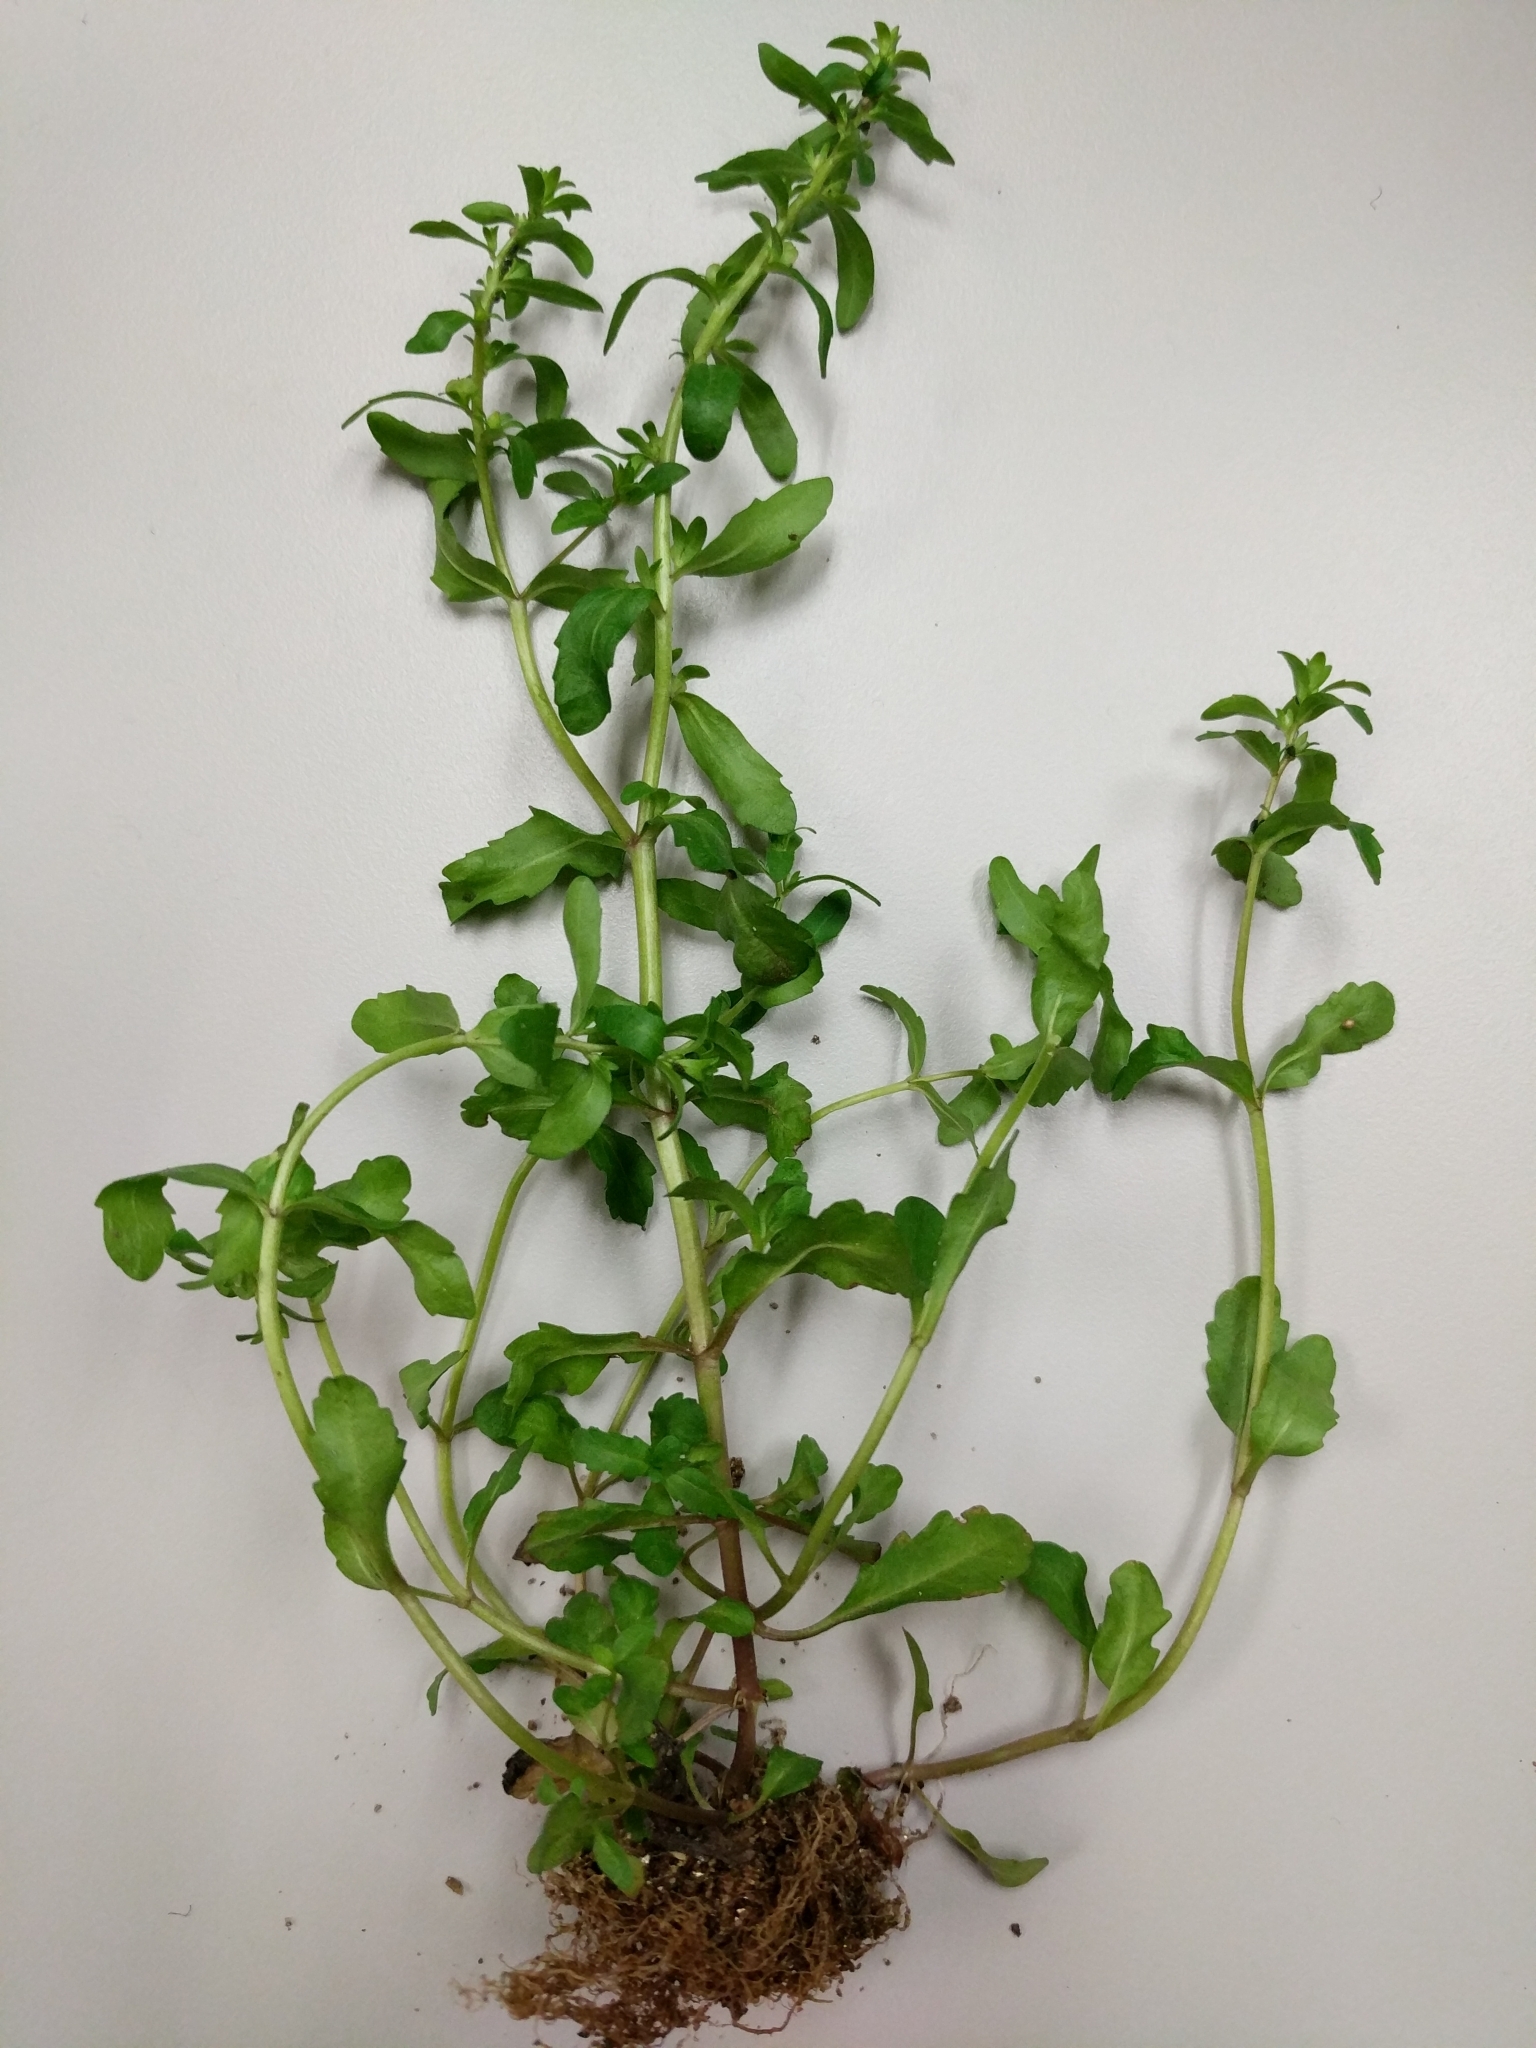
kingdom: Plantae
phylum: Tracheophyta
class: Magnoliopsida
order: Lamiales
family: Plantaginaceae
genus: Veronica
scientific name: Veronica peregrina
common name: Neckweed
